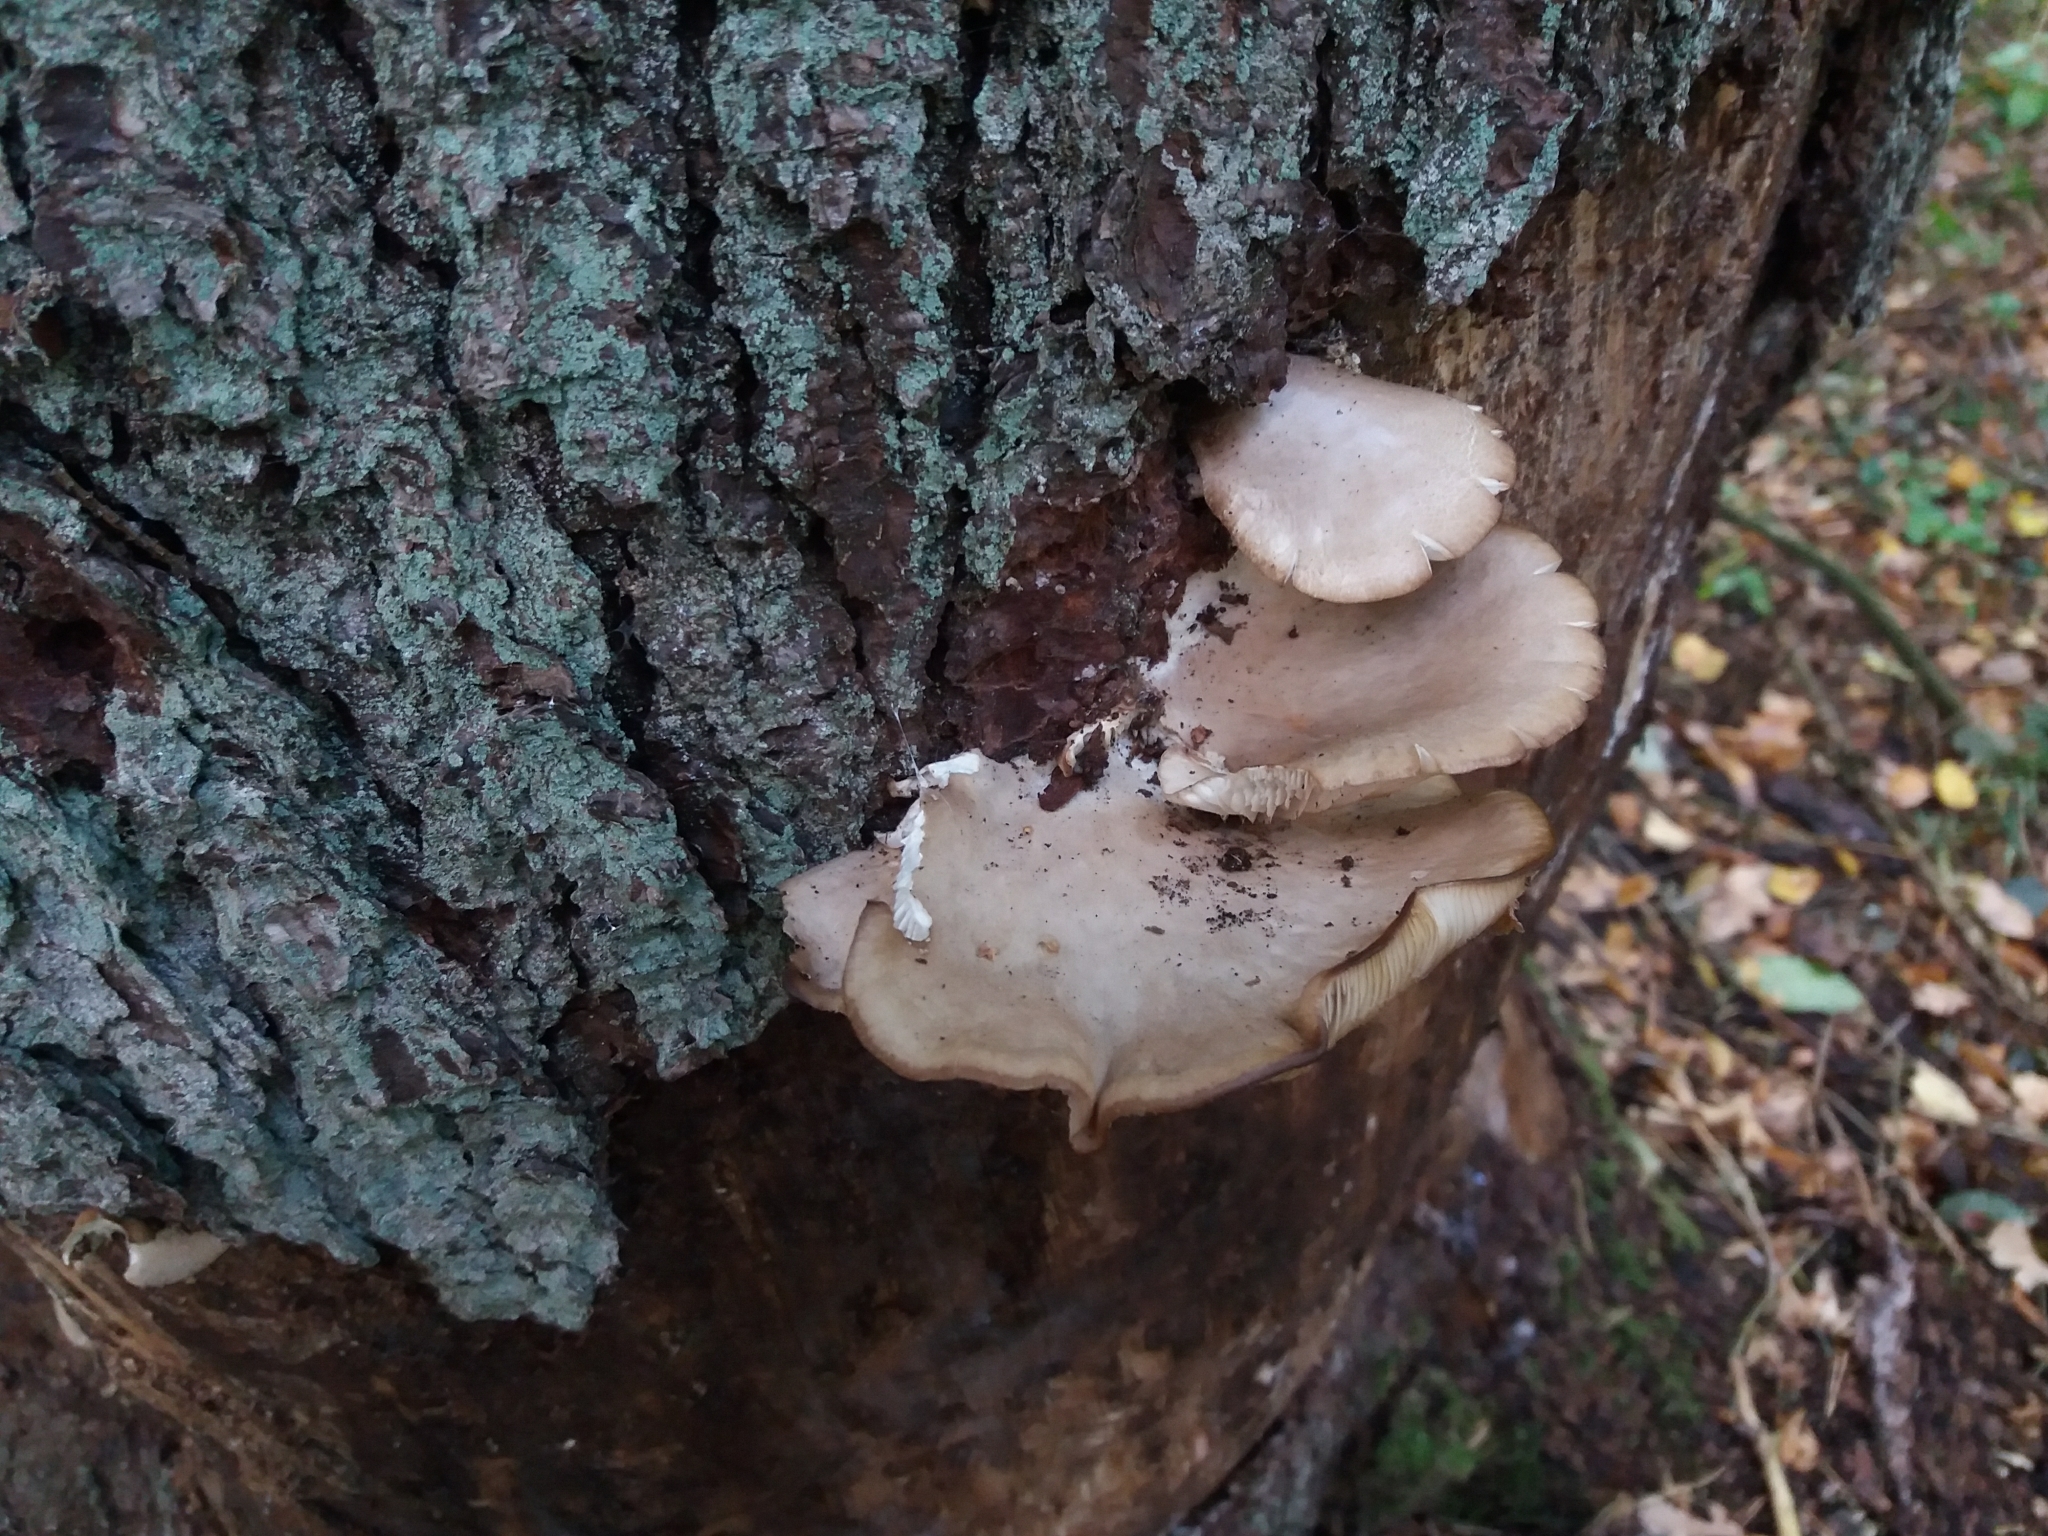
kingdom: Fungi
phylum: Basidiomycota
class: Agaricomycetes
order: Agaricales
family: Pleurotaceae
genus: Pleurotus
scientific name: Pleurotus ostreatus
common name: Oyster mushroom
